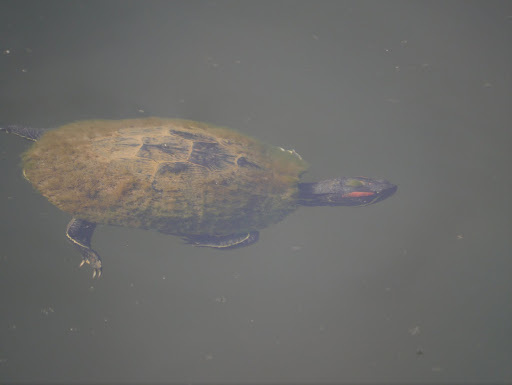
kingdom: Animalia
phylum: Chordata
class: Testudines
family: Emydidae
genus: Trachemys
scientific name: Trachemys scripta
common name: Slider
